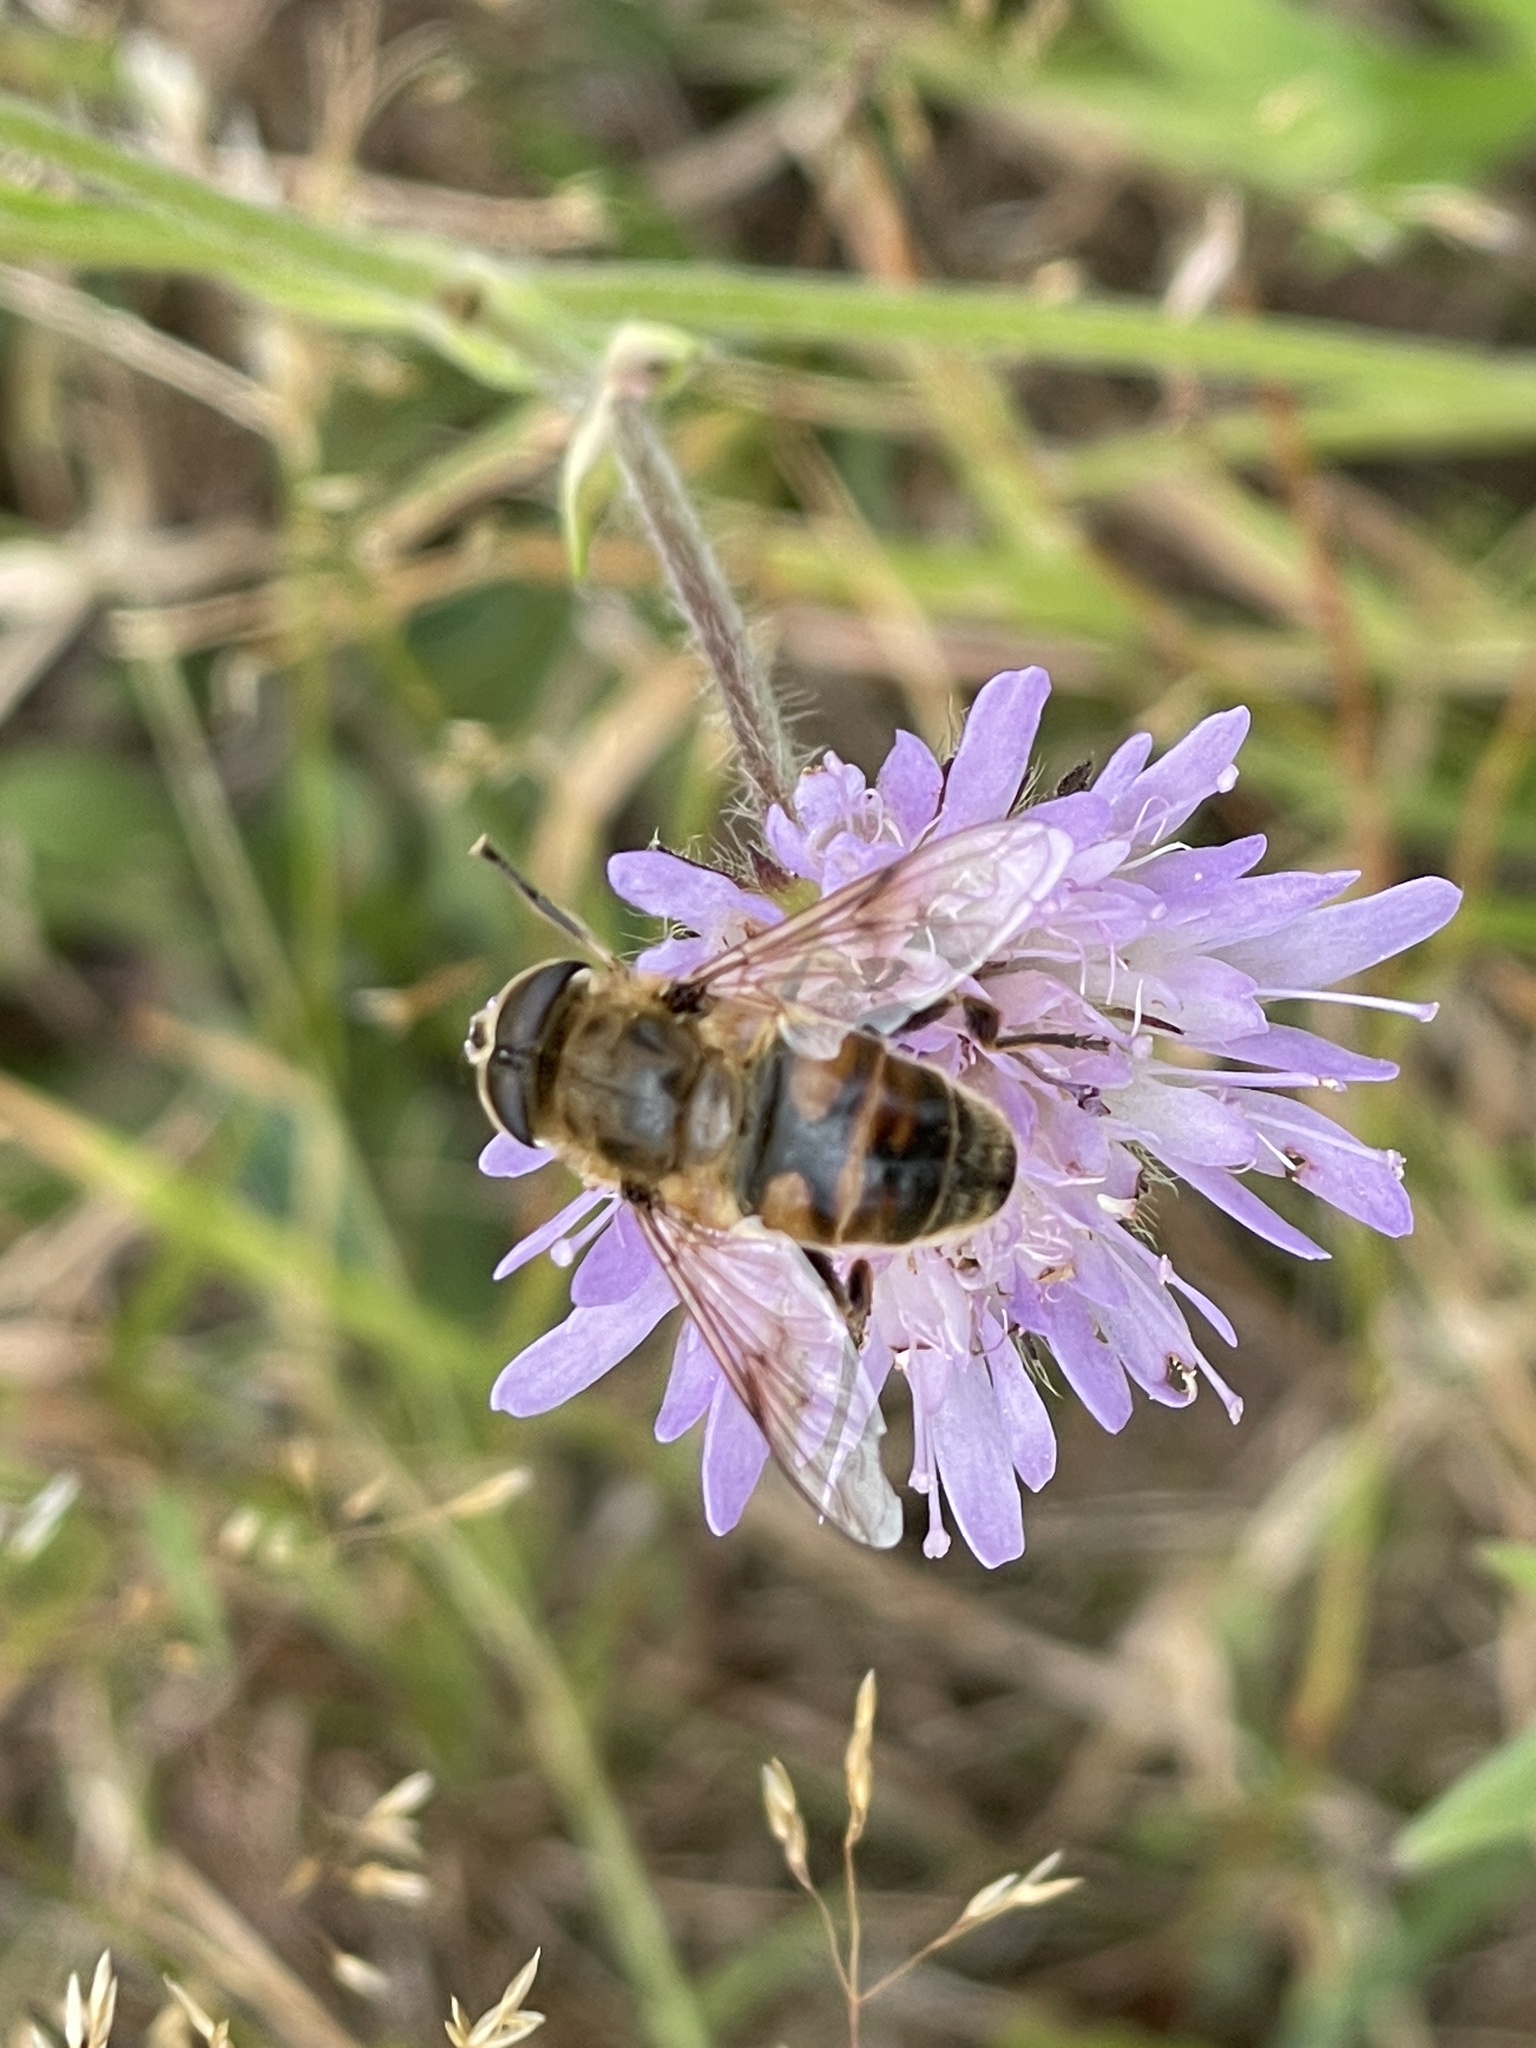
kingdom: Animalia
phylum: Arthropoda
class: Insecta
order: Diptera
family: Syrphidae
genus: Eristalis
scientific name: Eristalis tenax
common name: Drone fly
